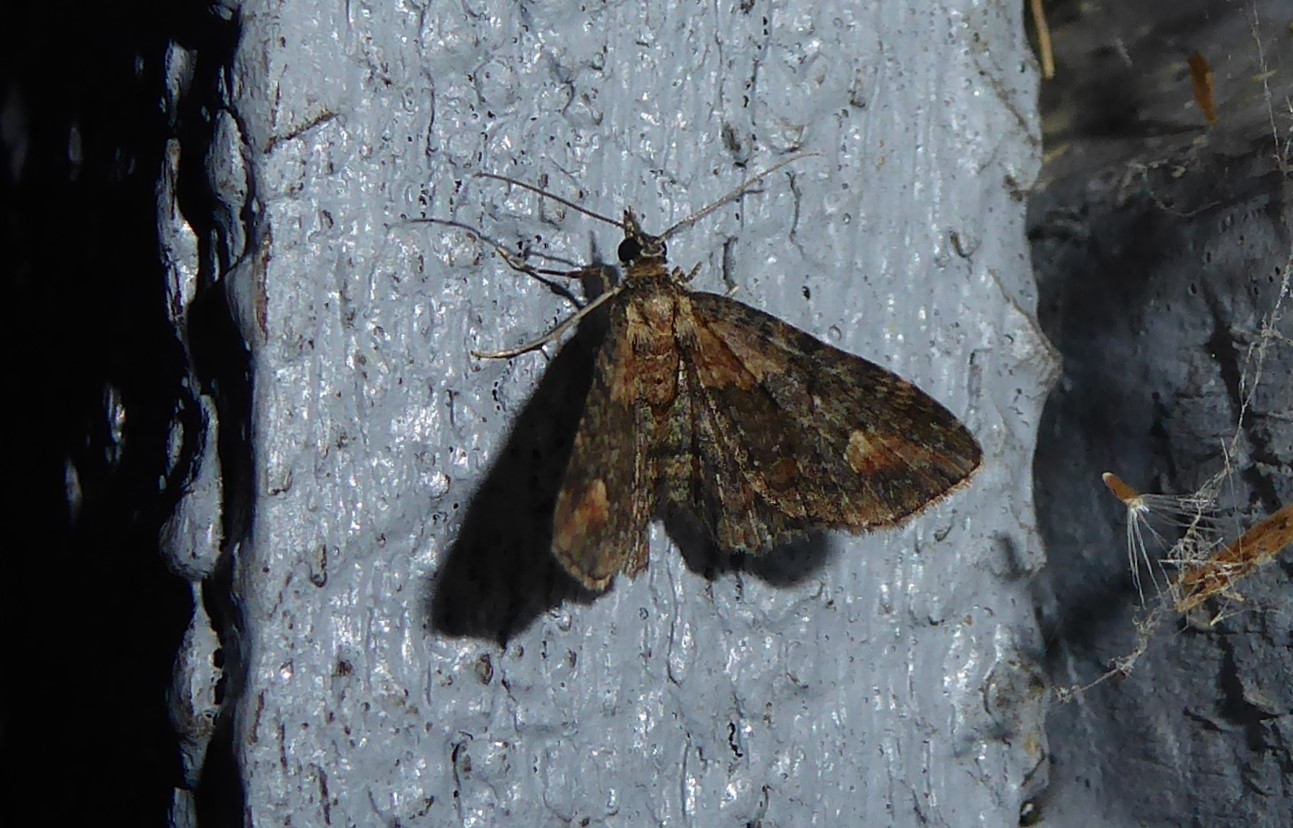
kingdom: Animalia
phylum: Arthropoda
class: Insecta
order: Lepidoptera
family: Geometridae
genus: Pasiphilodes
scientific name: Pasiphilodes testulata
